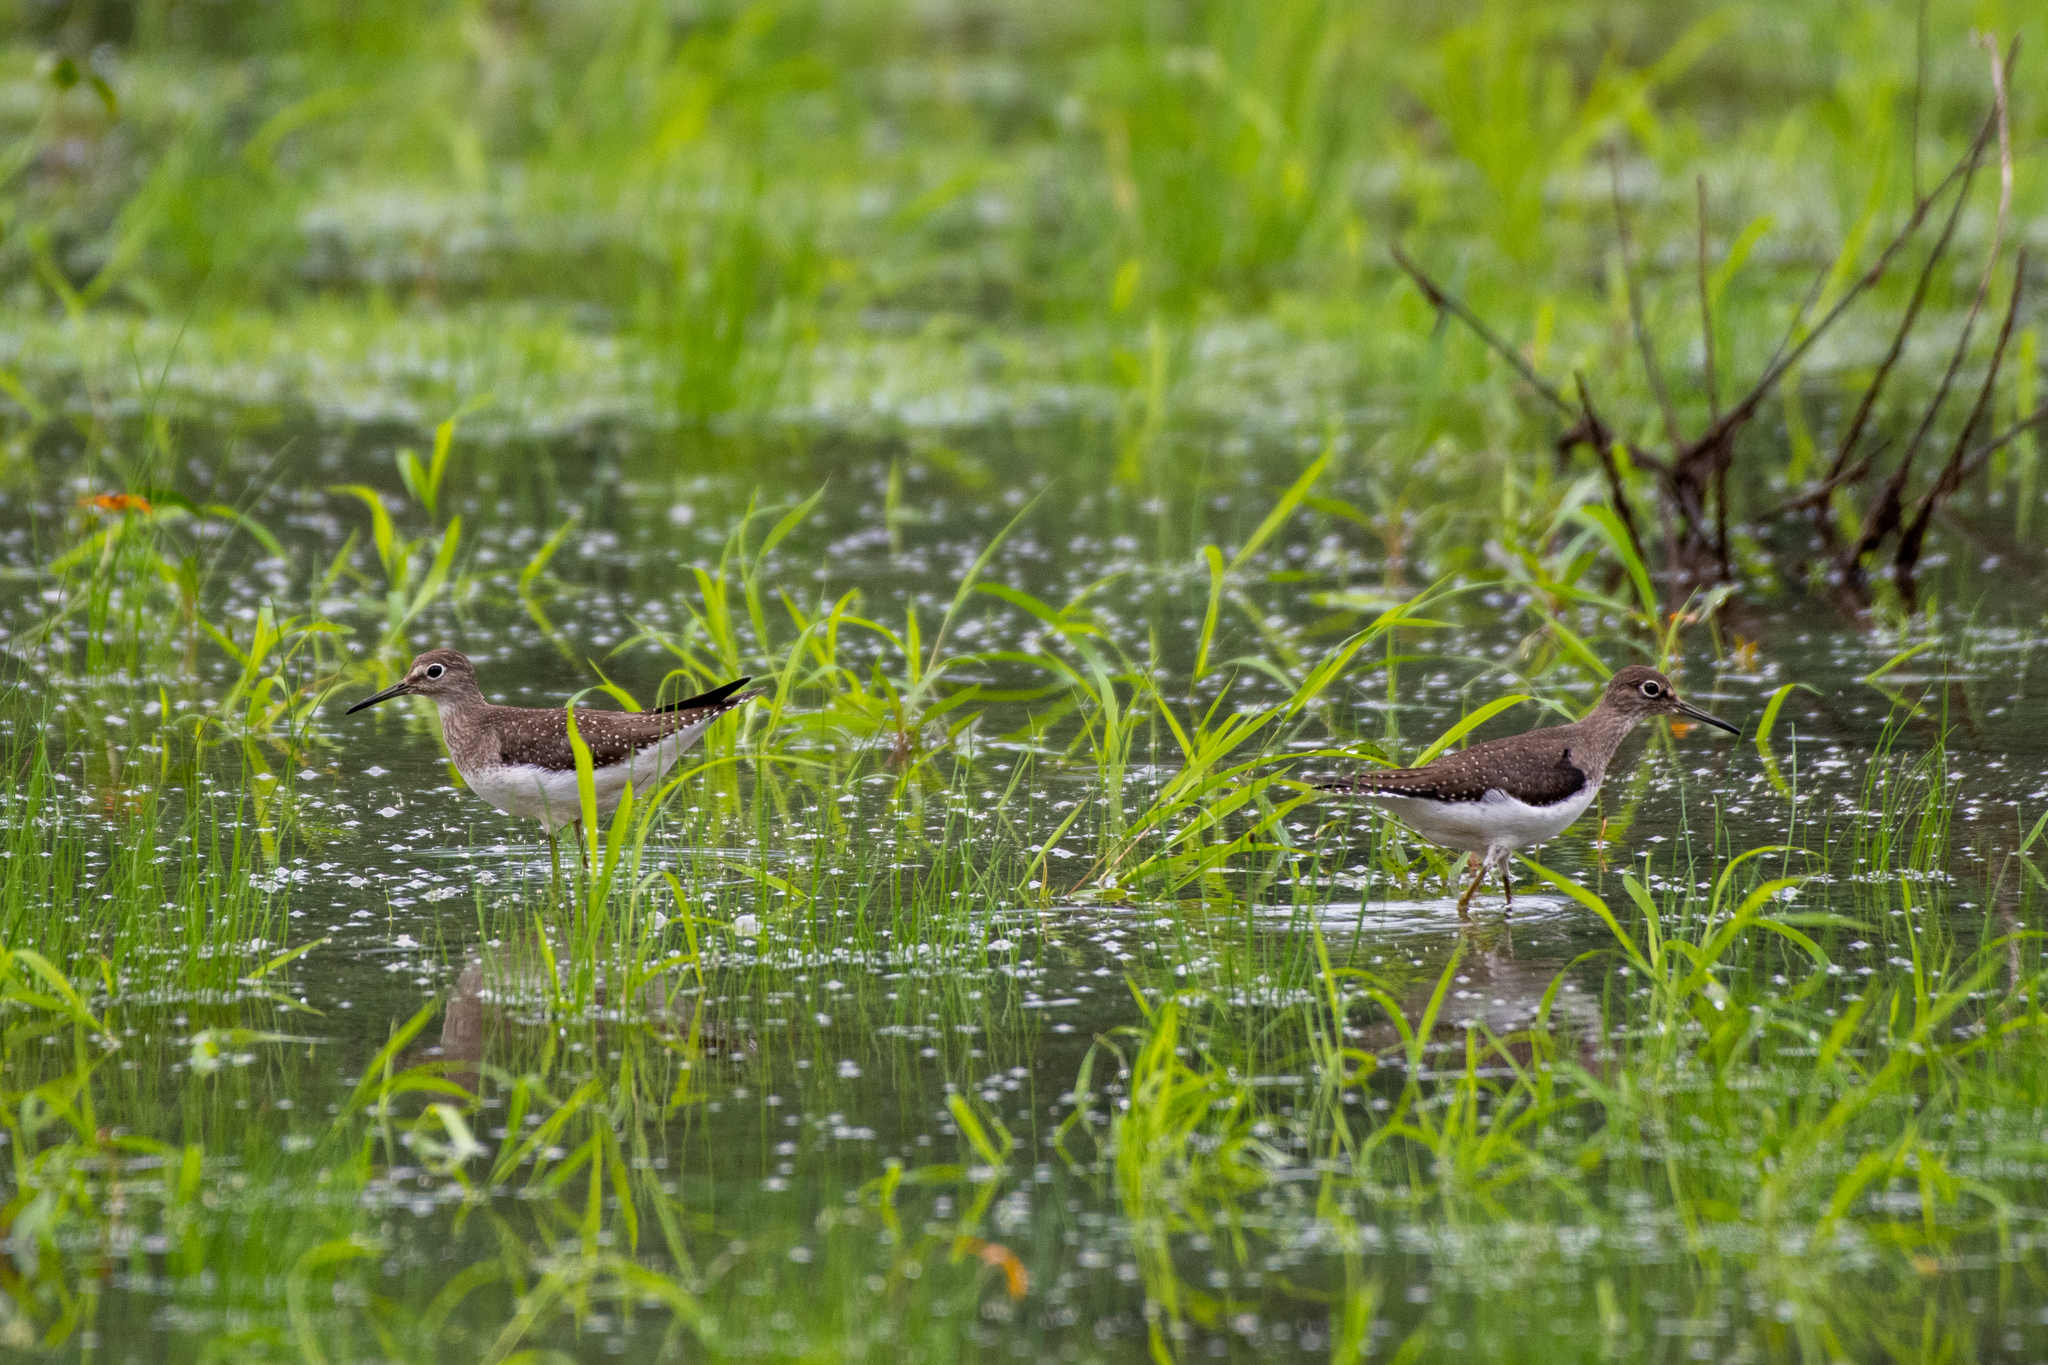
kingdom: Animalia
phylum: Chordata
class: Aves
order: Charadriiformes
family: Scolopacidae
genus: Tringa
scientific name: Tringa solitaria
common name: Solitary sandpiper
